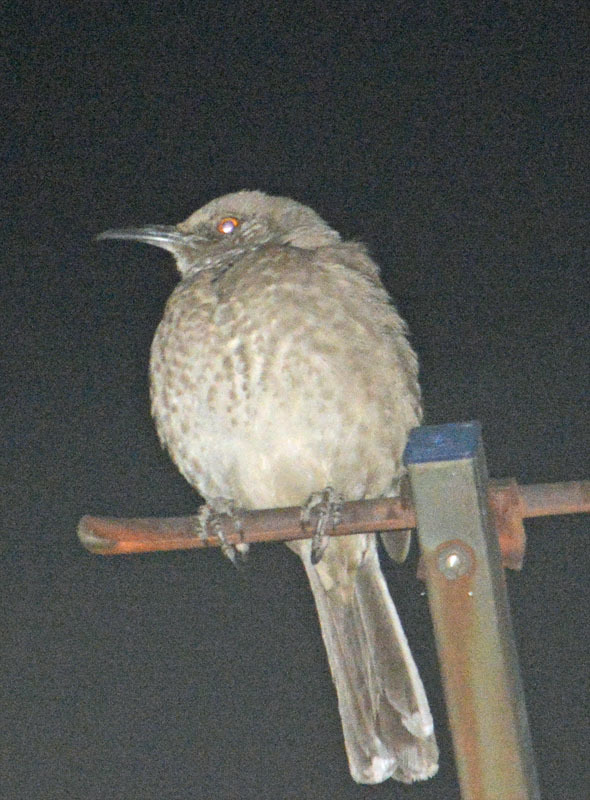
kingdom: Animalia
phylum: Chordata
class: Aves
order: Passeriformes
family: Mimidae
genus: Toxostoma
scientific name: Toxostoma curvirostre
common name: Curve-billed thrasher
